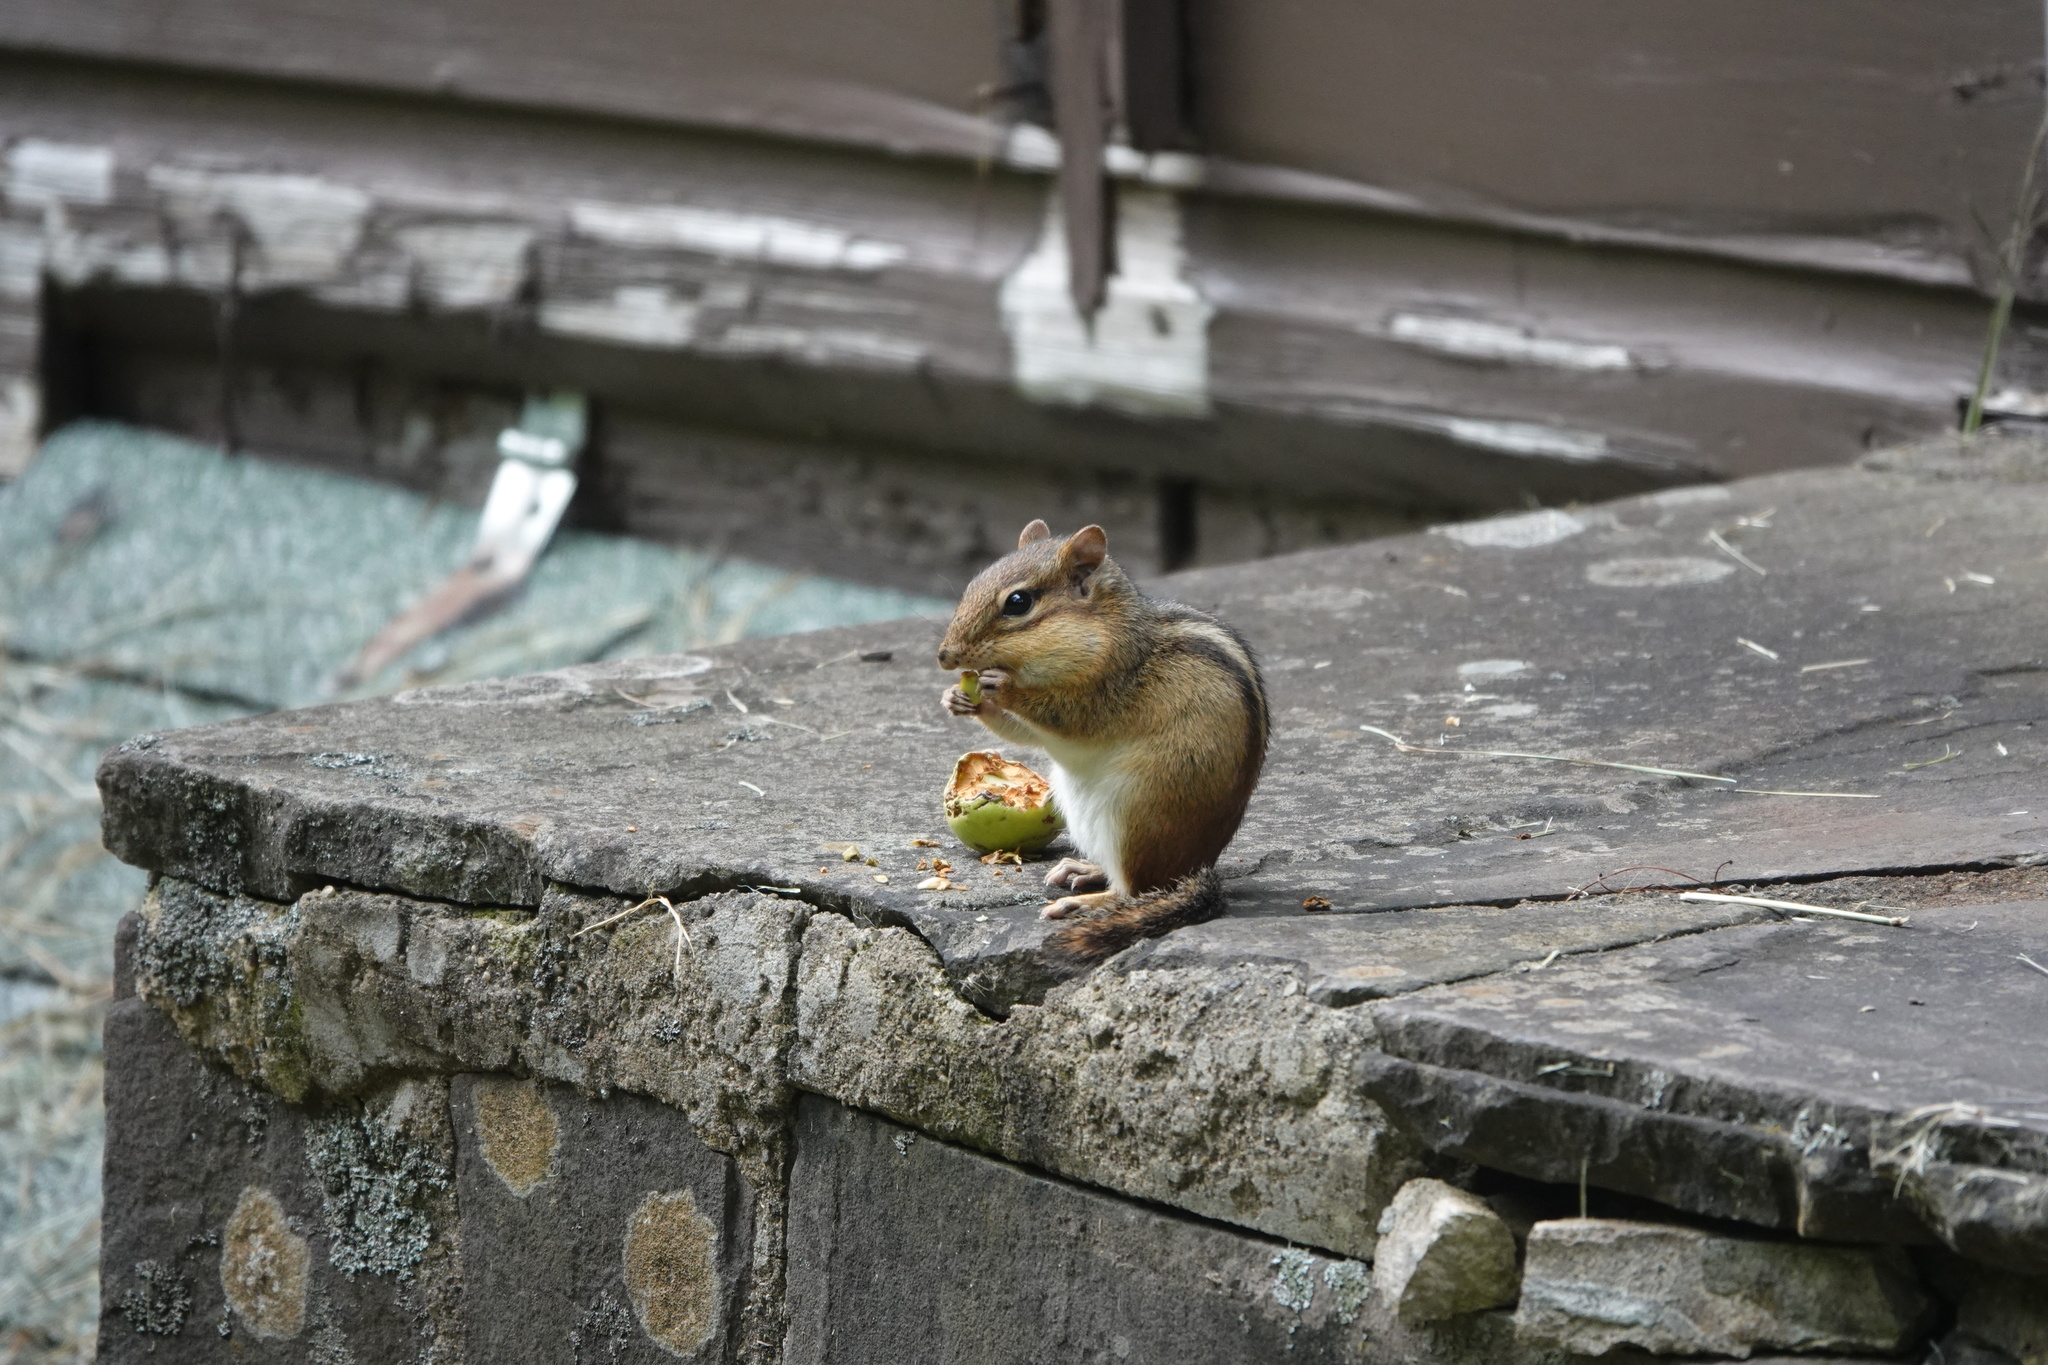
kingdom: Animalia
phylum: Chordata
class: Mammalia
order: Rodentia
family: Sciuridae
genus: Tamias
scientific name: Tamias striatus
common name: Eastern chipmunk
